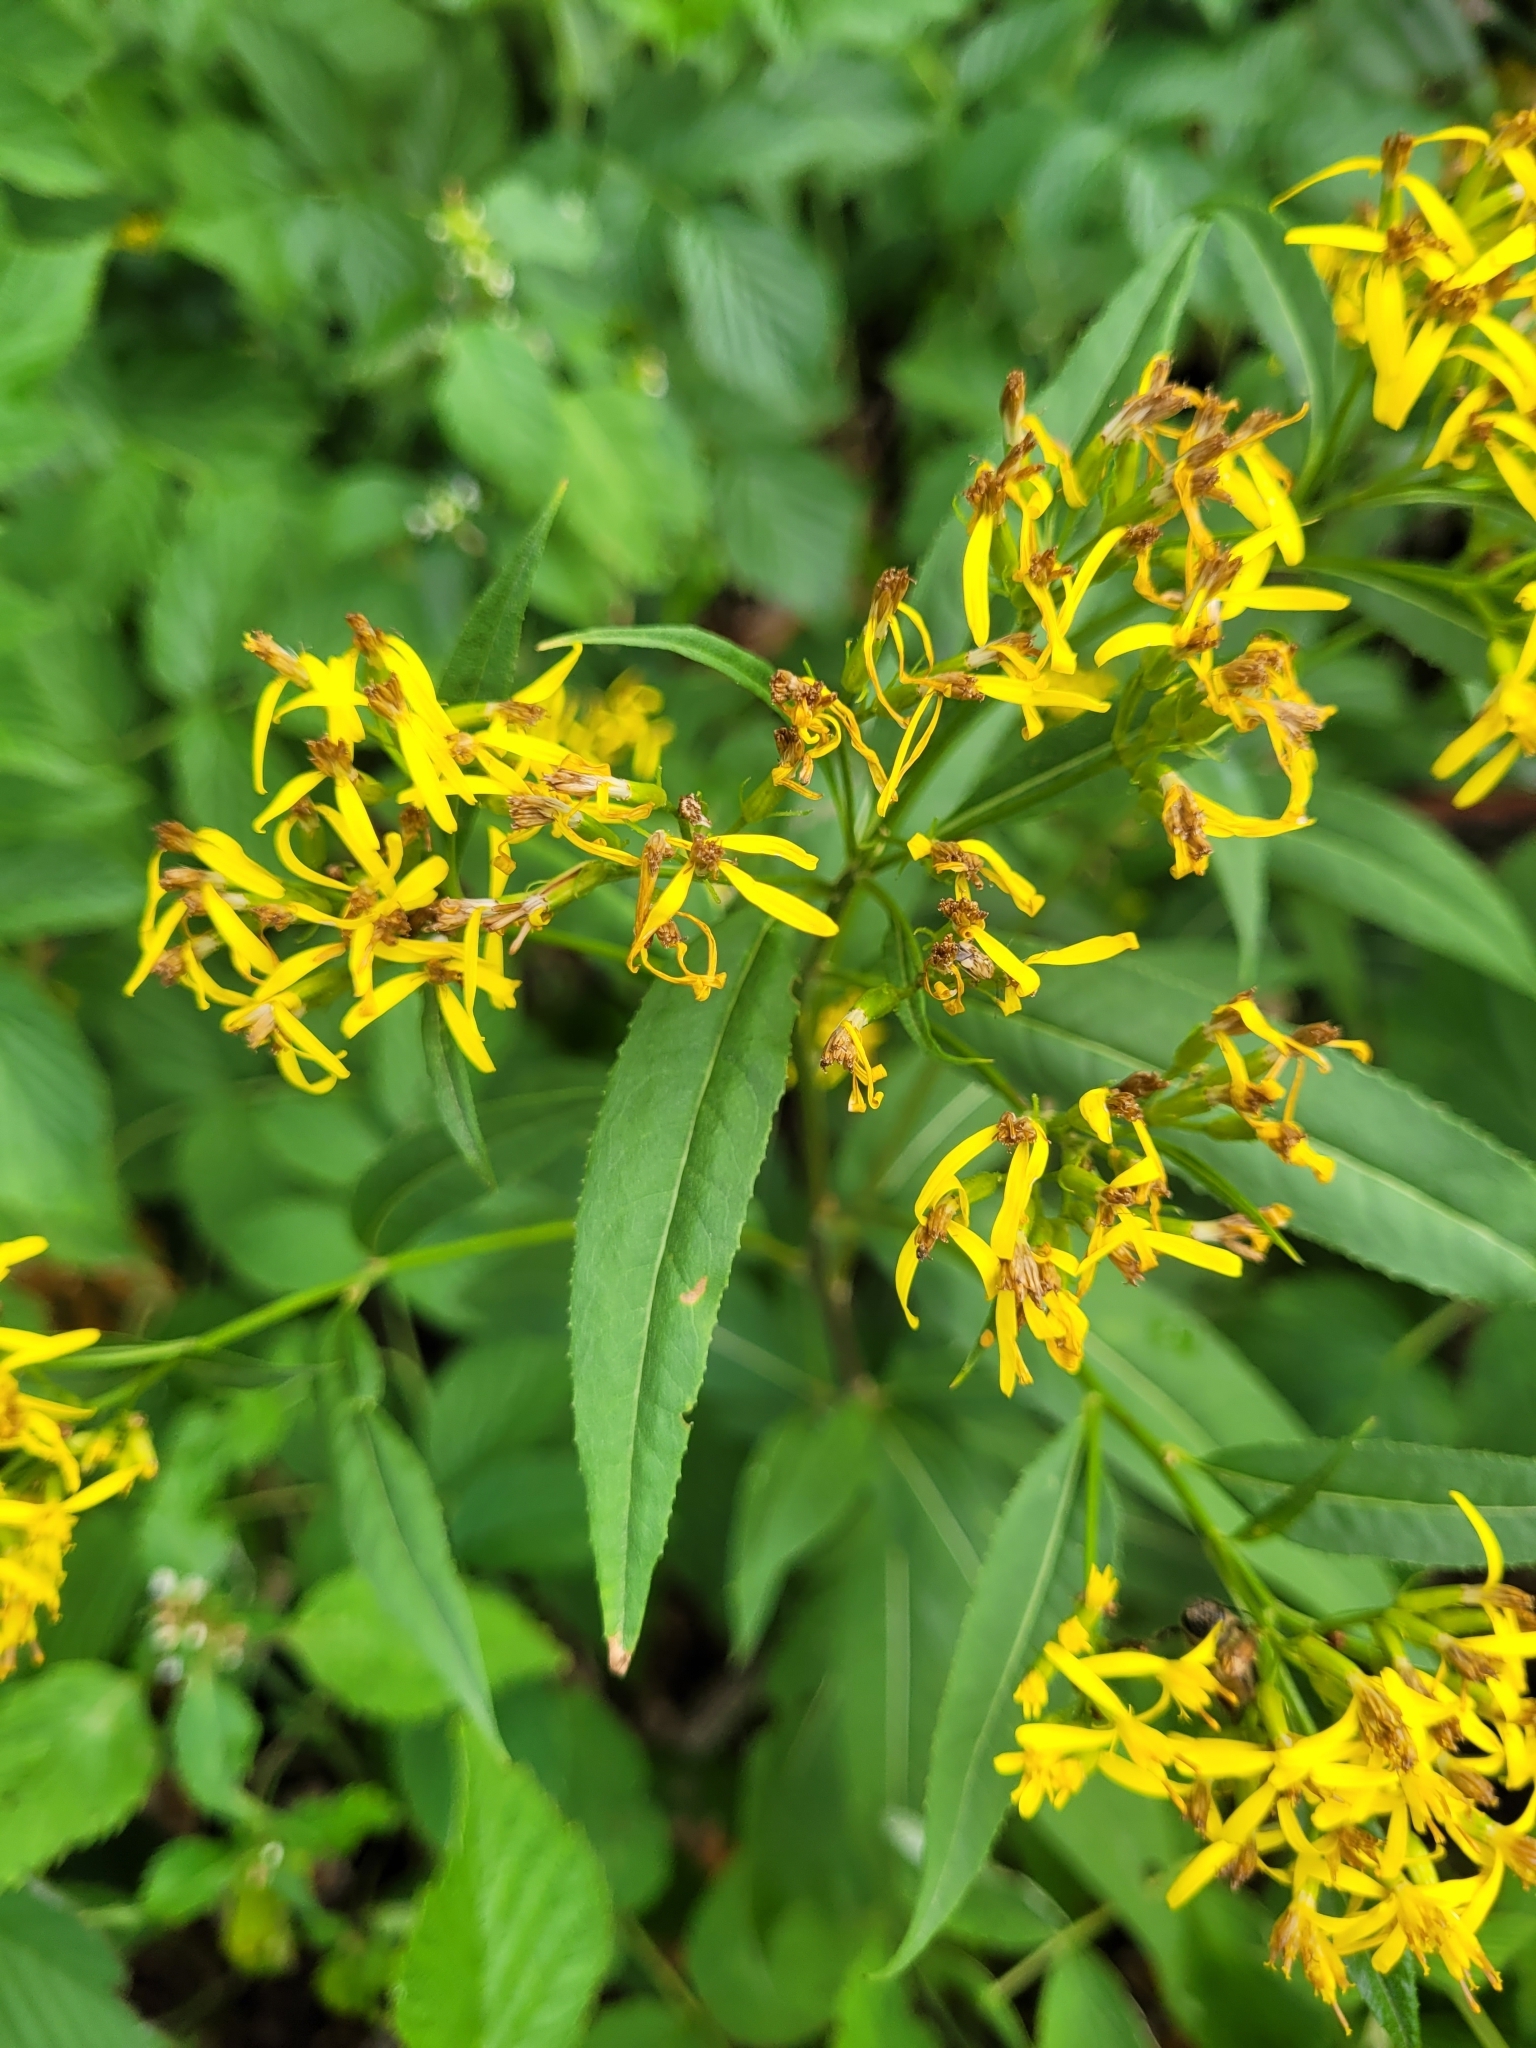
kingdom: Plantae
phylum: Tracheophyta
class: Magnoliopsida
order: Asterales
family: Asteraceae
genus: Senecio
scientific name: Senecio ovatus
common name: Wood ragwort
